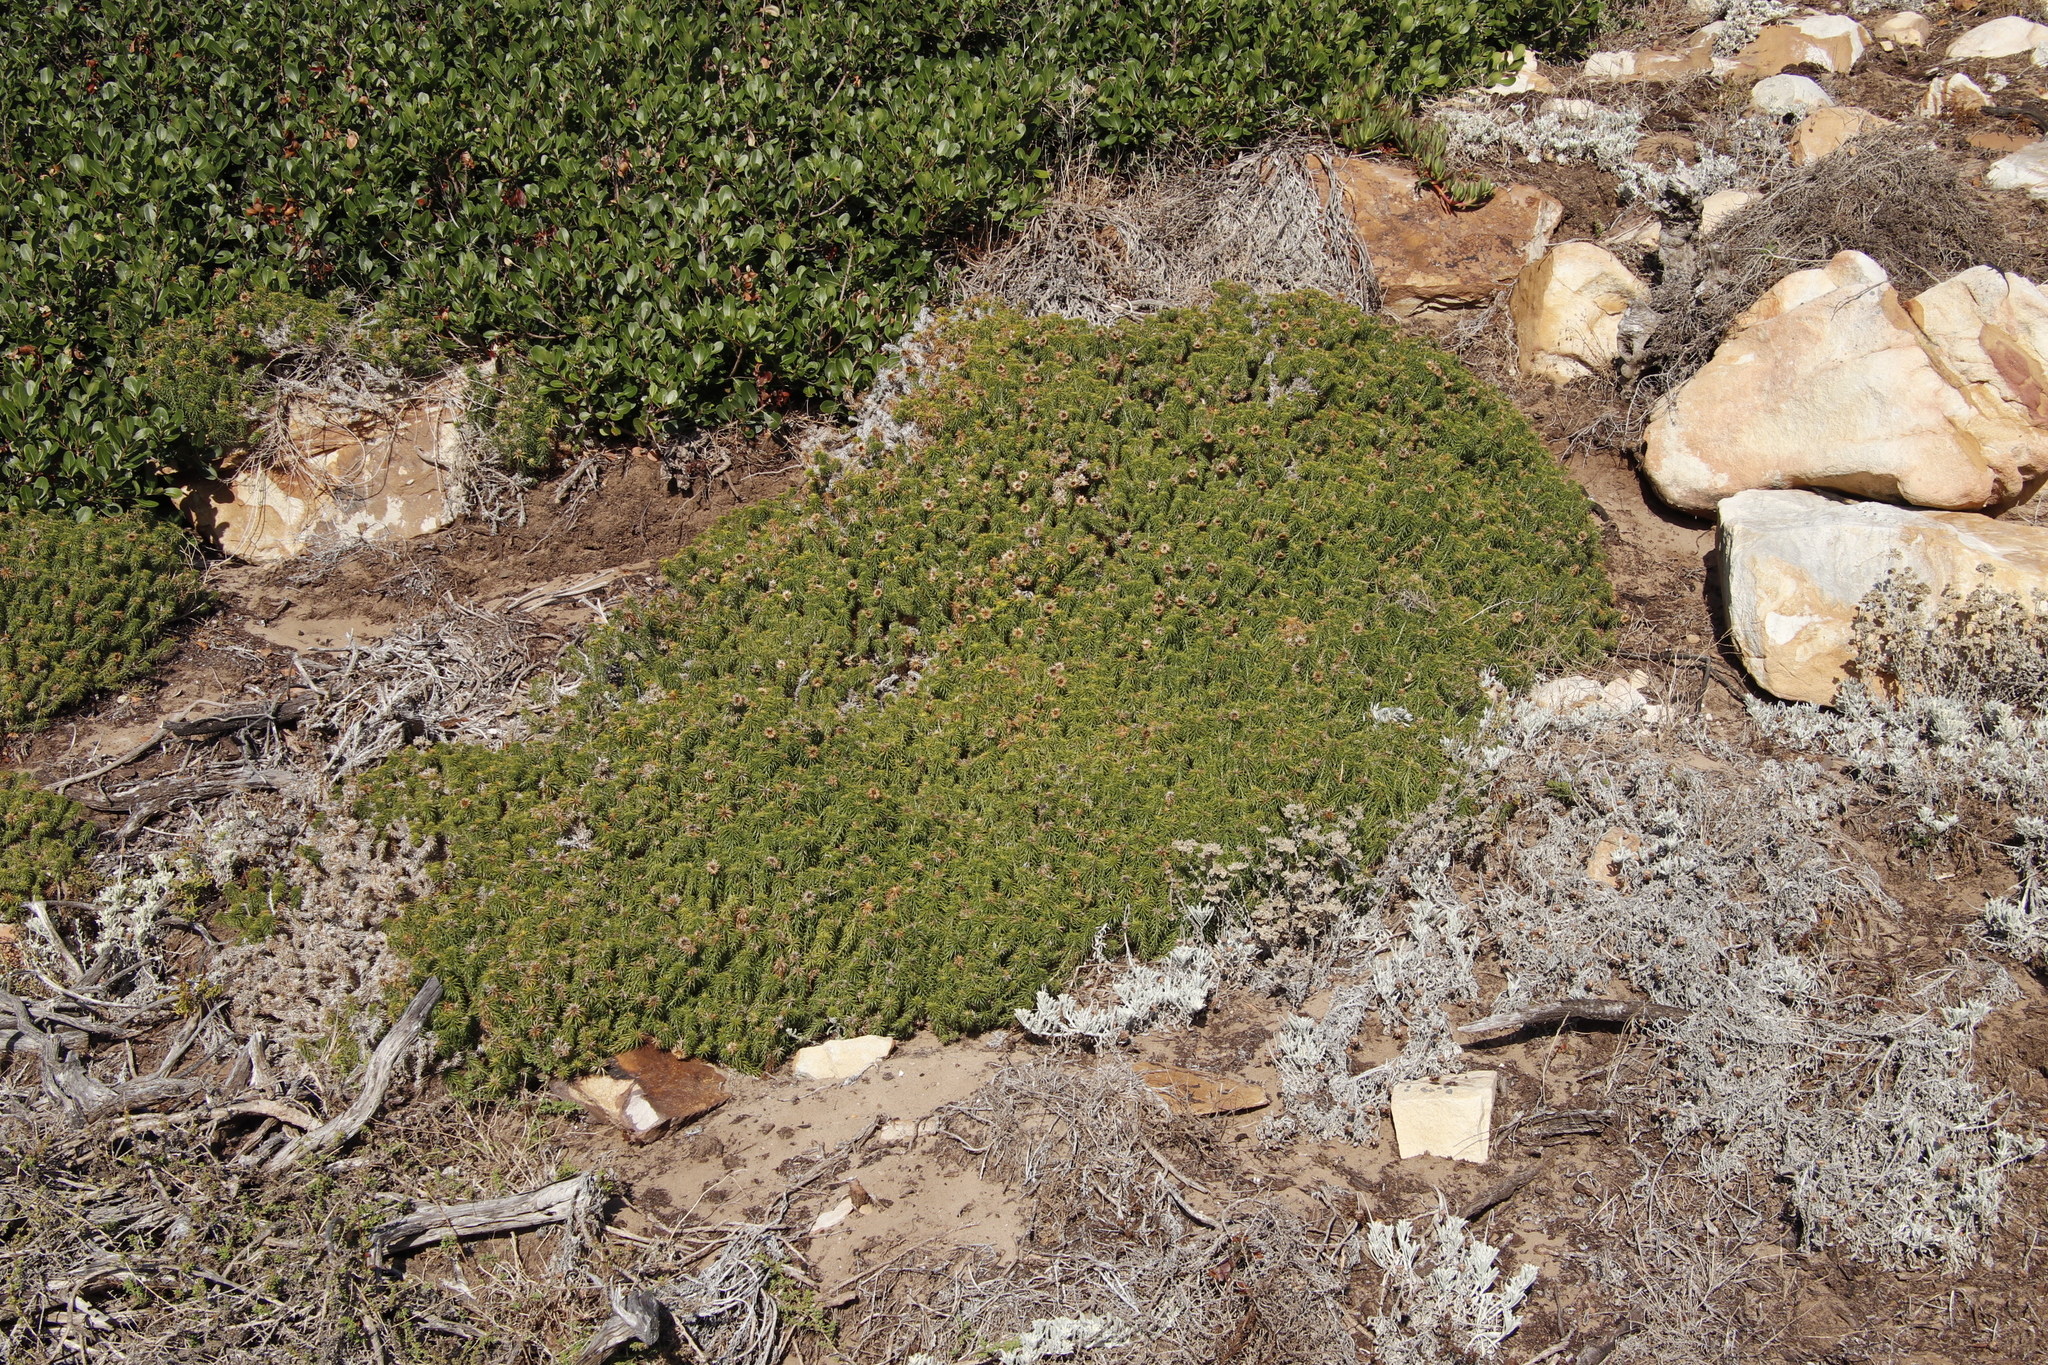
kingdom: Plantae
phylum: Tracheophyta
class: Magnoliopsida
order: Asterales
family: Asteraceae
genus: Cullumia
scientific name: Cullumia squarrosa
